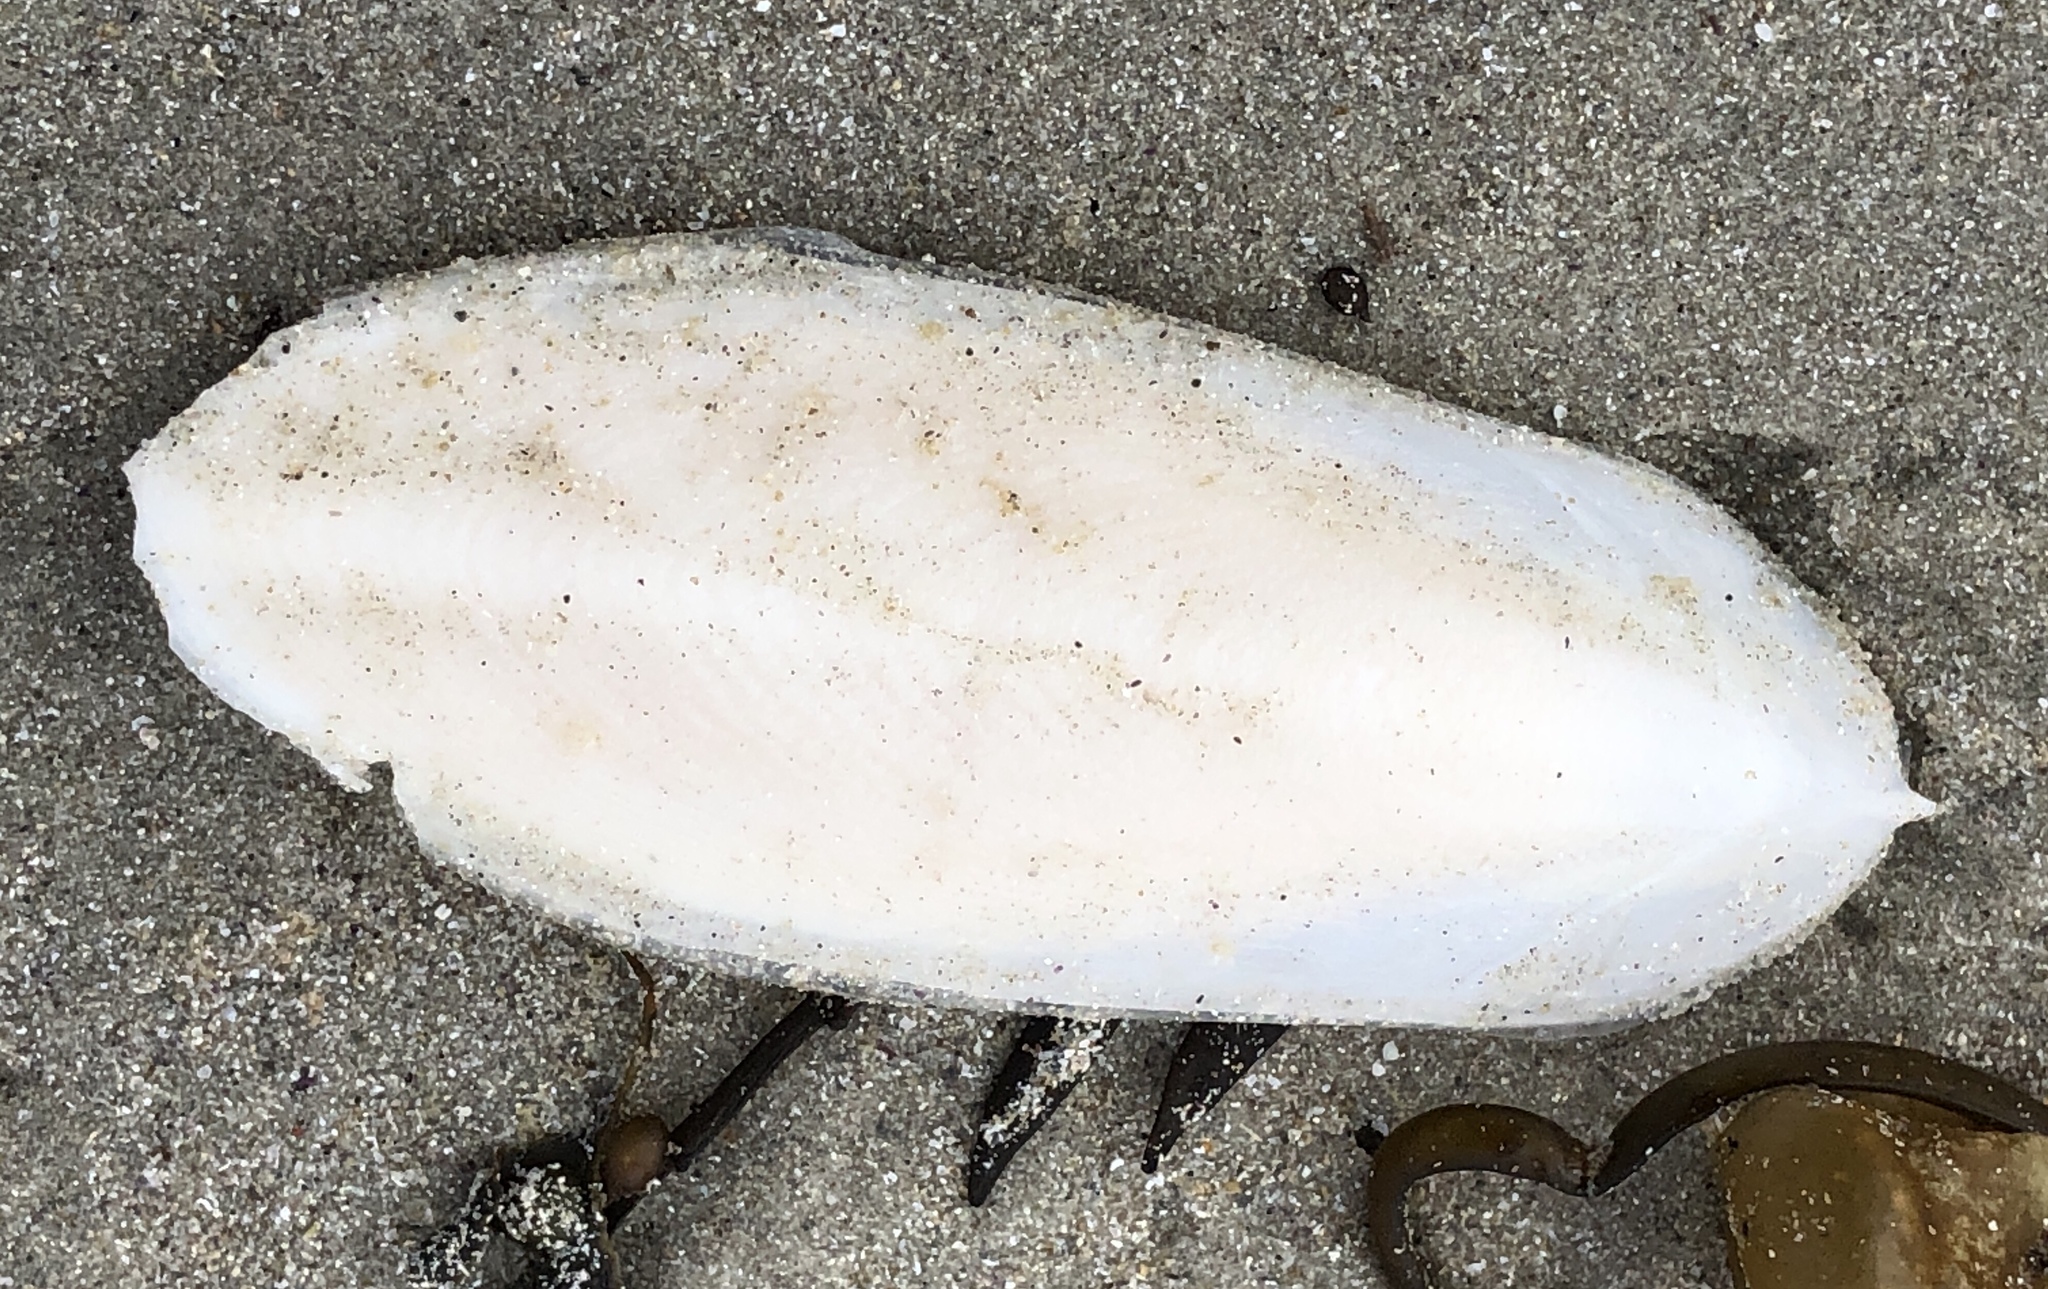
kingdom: Animalia
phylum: Mollusca
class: Cephalopoda
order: Sepiida
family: Sepiidae
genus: Sepia
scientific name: Sepia officinalis
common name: Common cuttlefish
